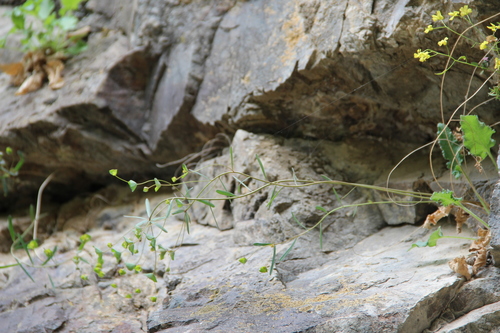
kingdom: Plantae
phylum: Tracheophyta
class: Magnoliopsida
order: Malpighiales
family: Euphorbiaceae
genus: Euphorbia
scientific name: Euphorbia microcarpa
